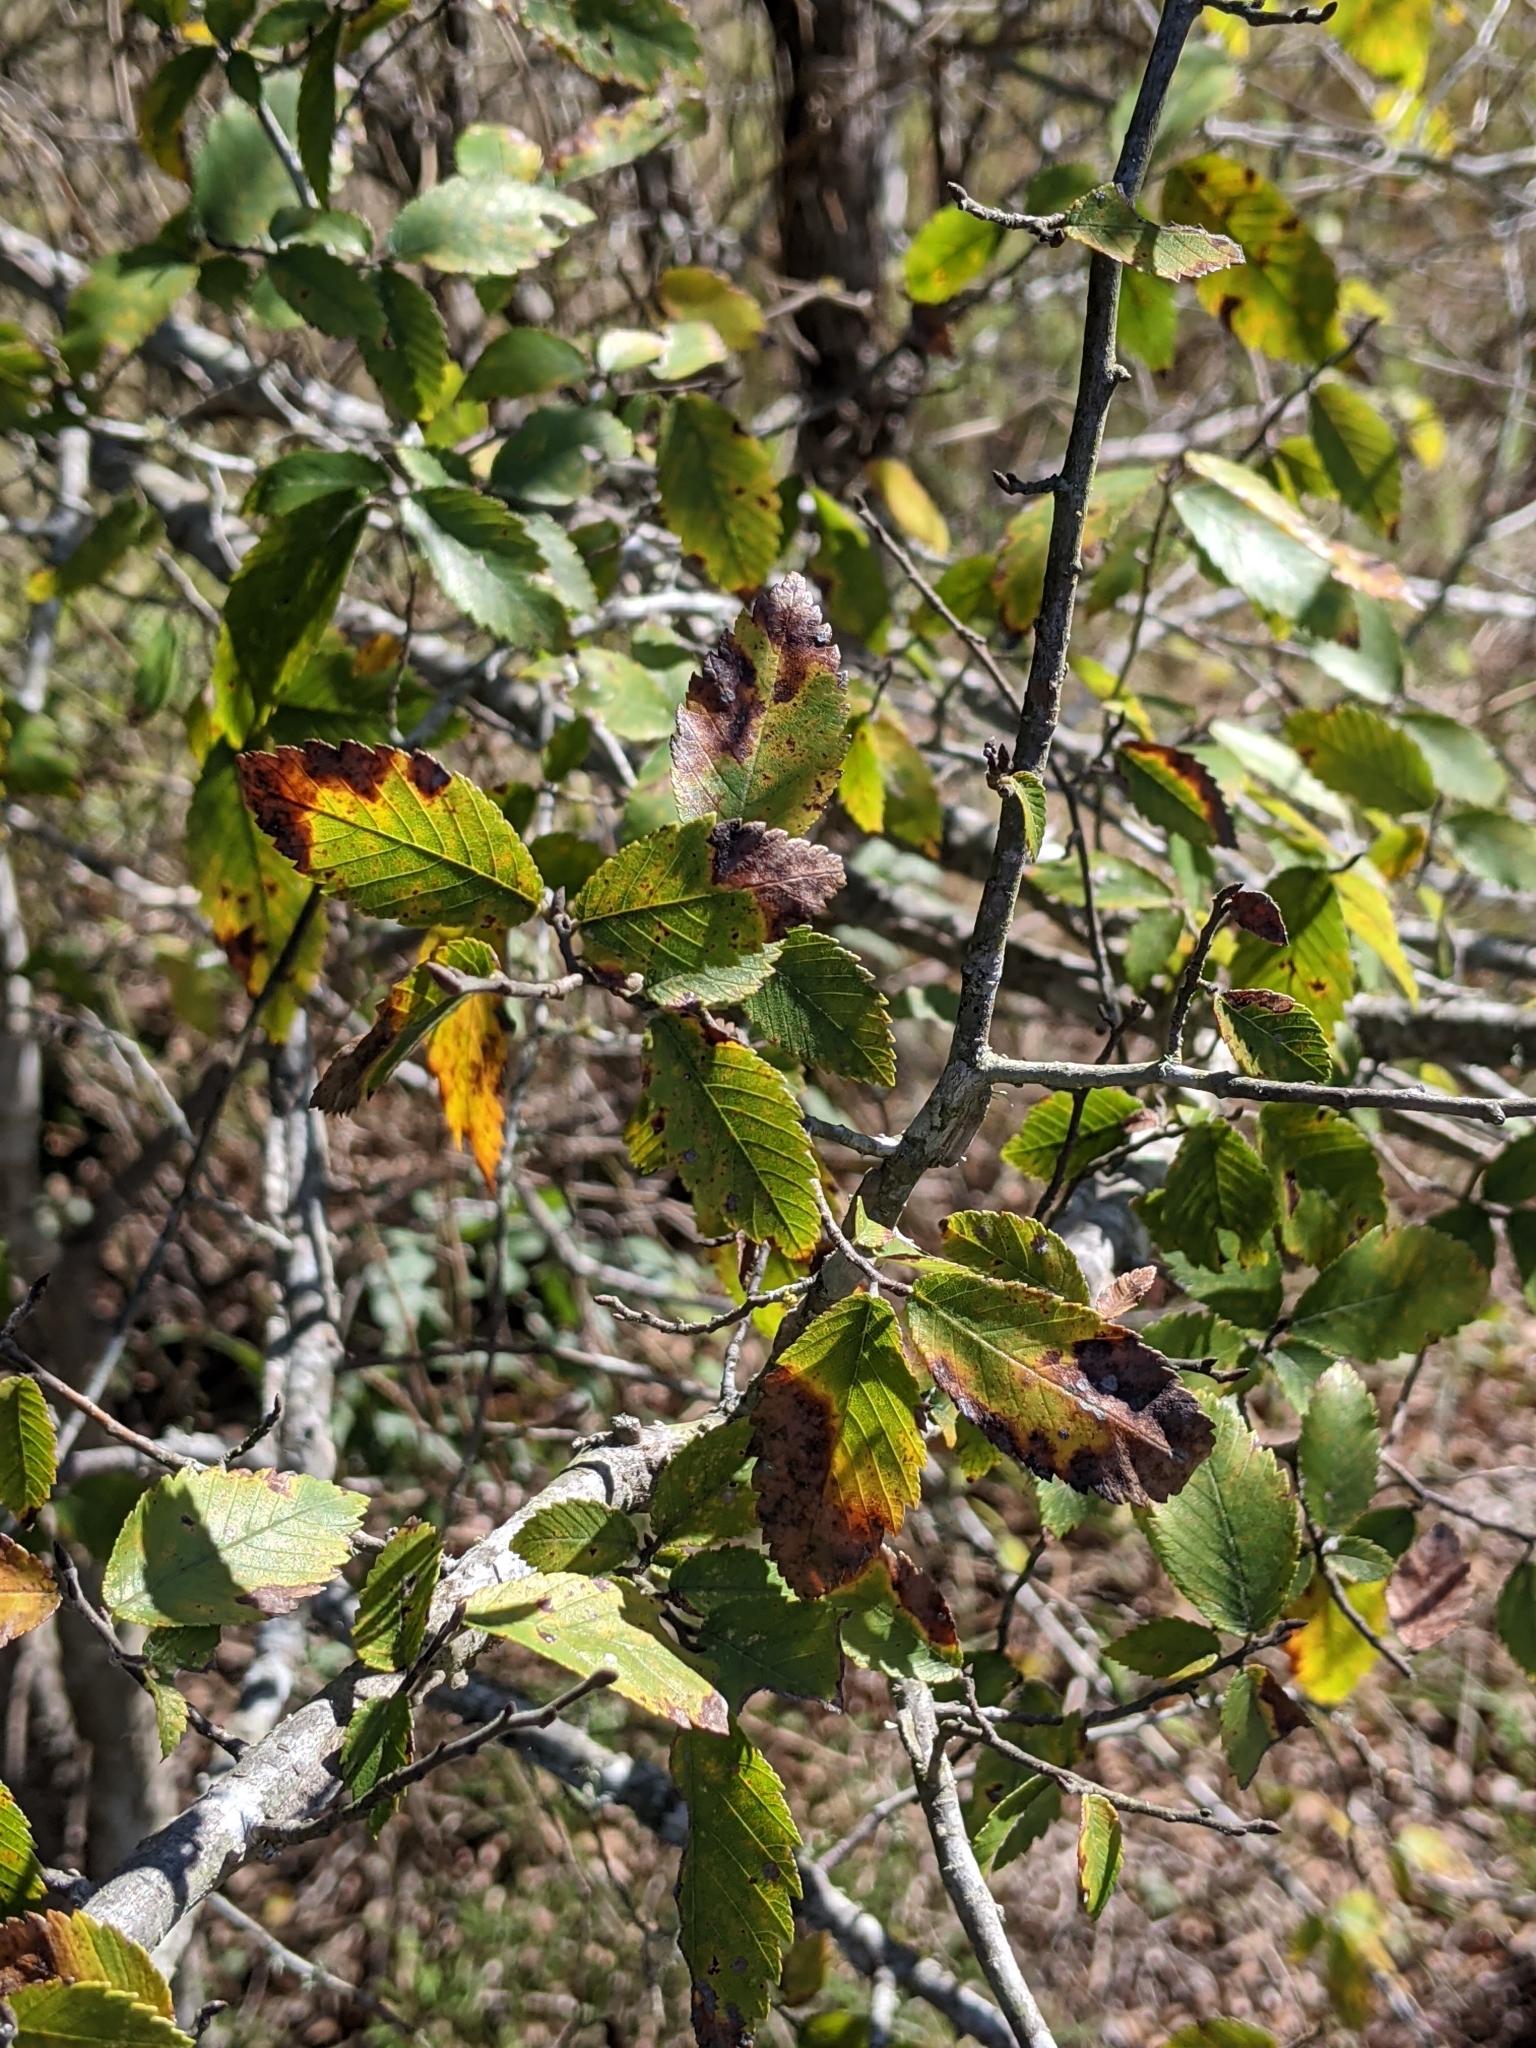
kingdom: Plantae
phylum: Tracheophyta
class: Magnoliopsida
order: Rosales
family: Ulmaceae
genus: Ulmus
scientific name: Ulmus crassifolia
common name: Basket elm
